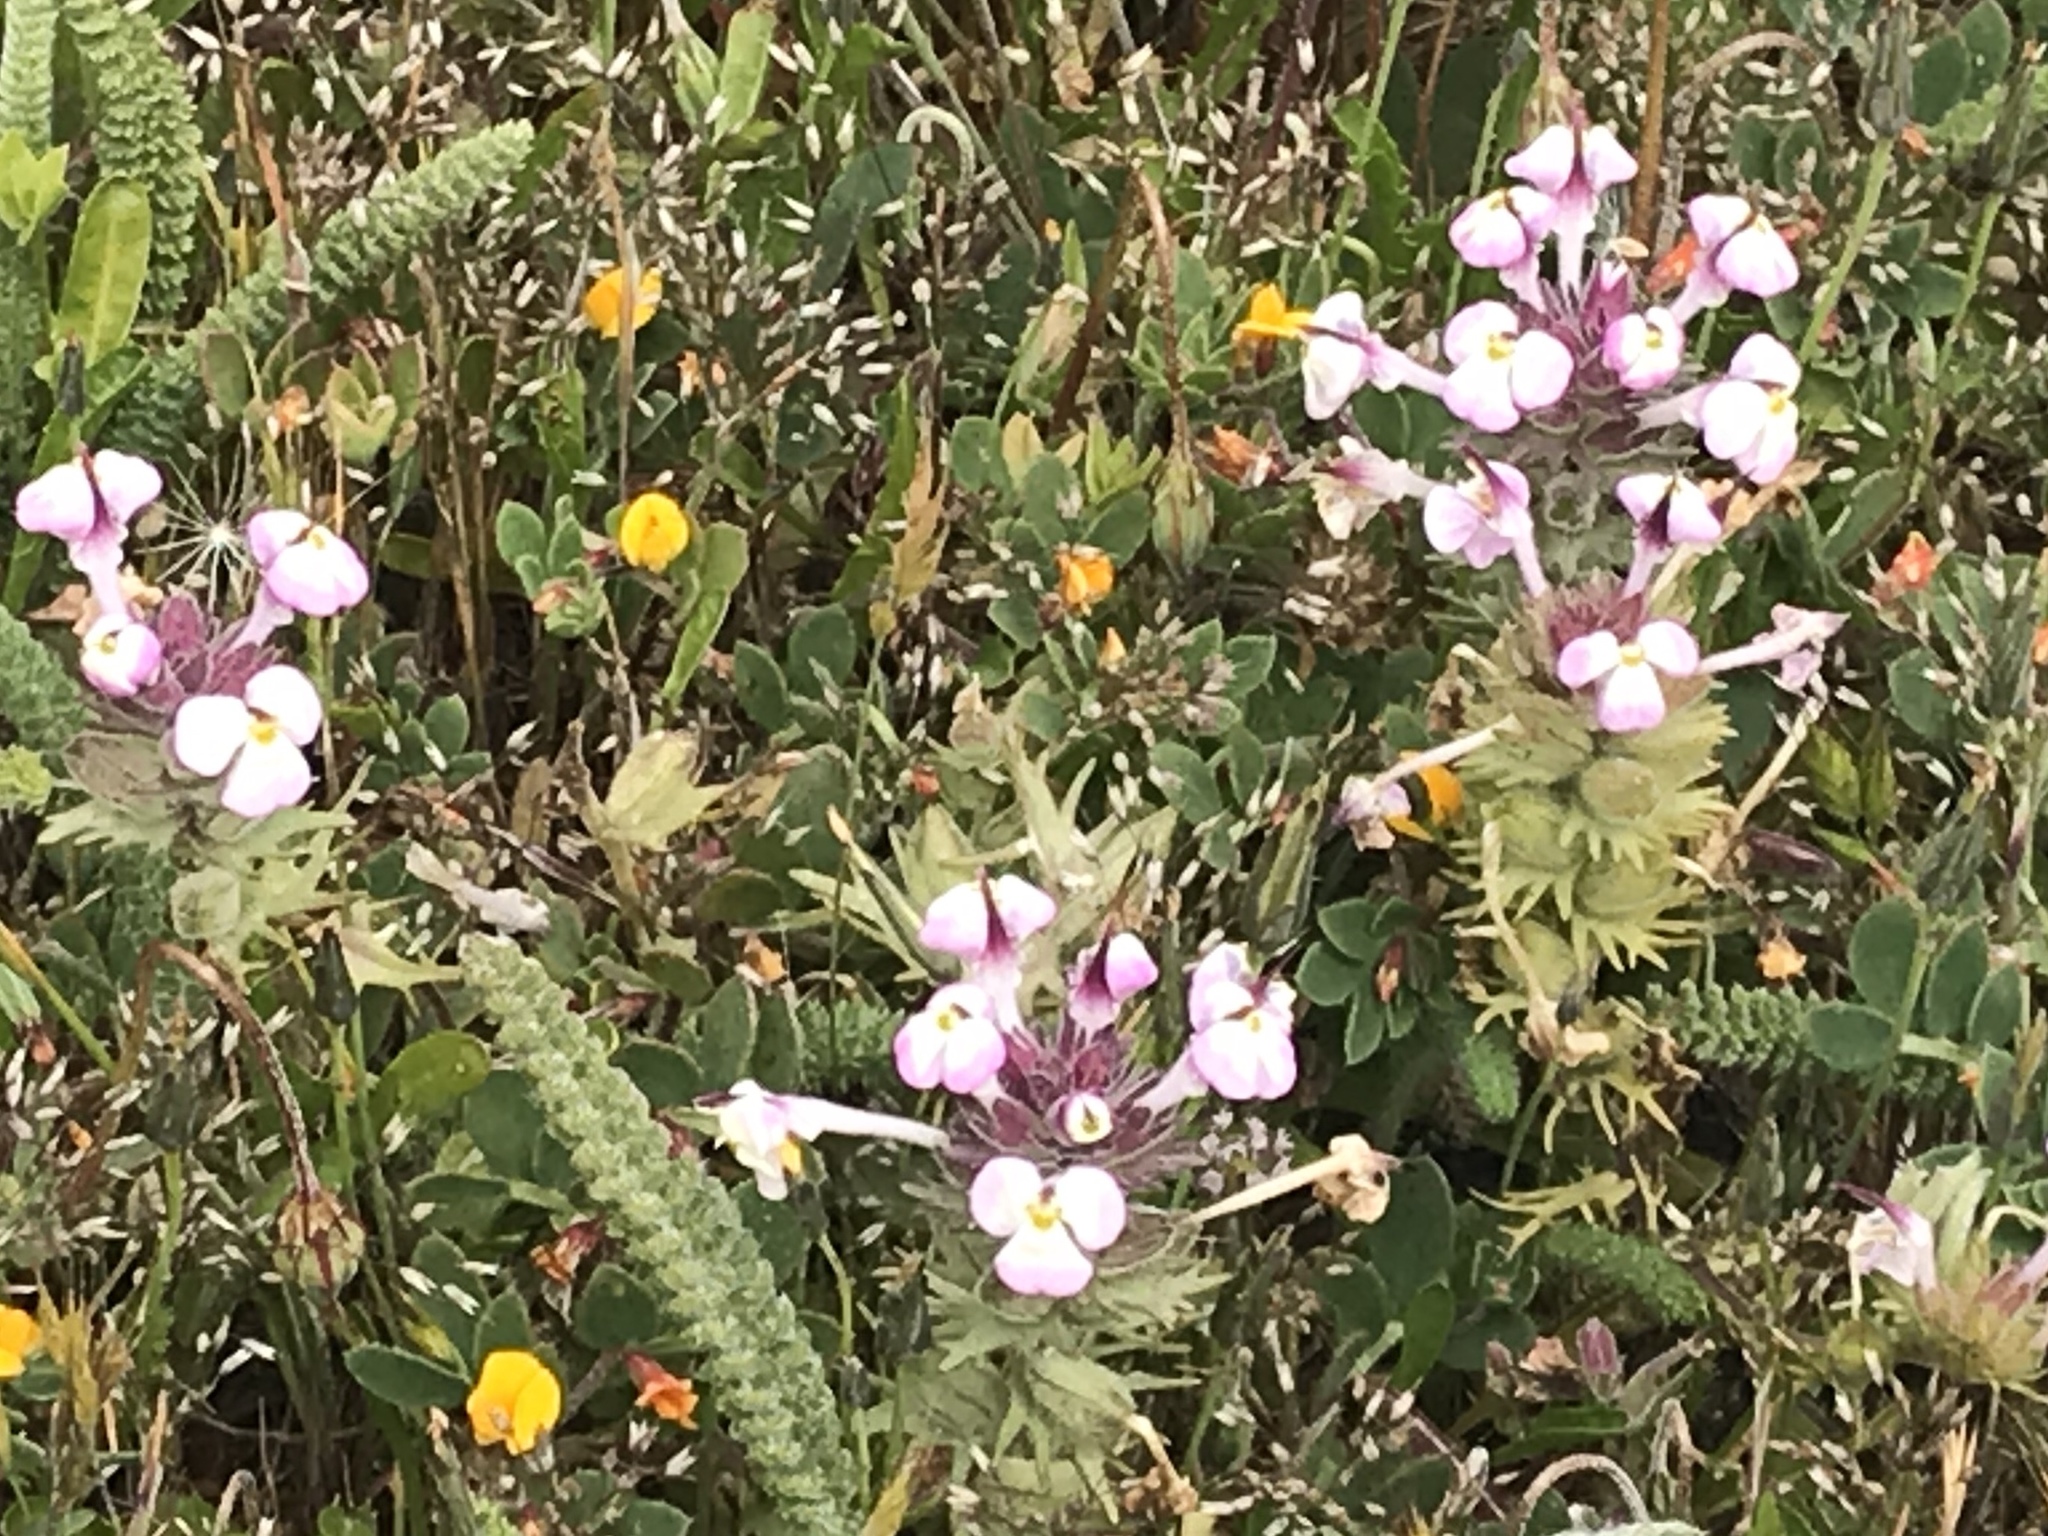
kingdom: Plantae
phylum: Tracheophyta
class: Magnoliopsida
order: Lamiales
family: Orobanchaceae
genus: Triphysaria
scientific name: Triphysaria eriantha
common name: Johnny-tuck
